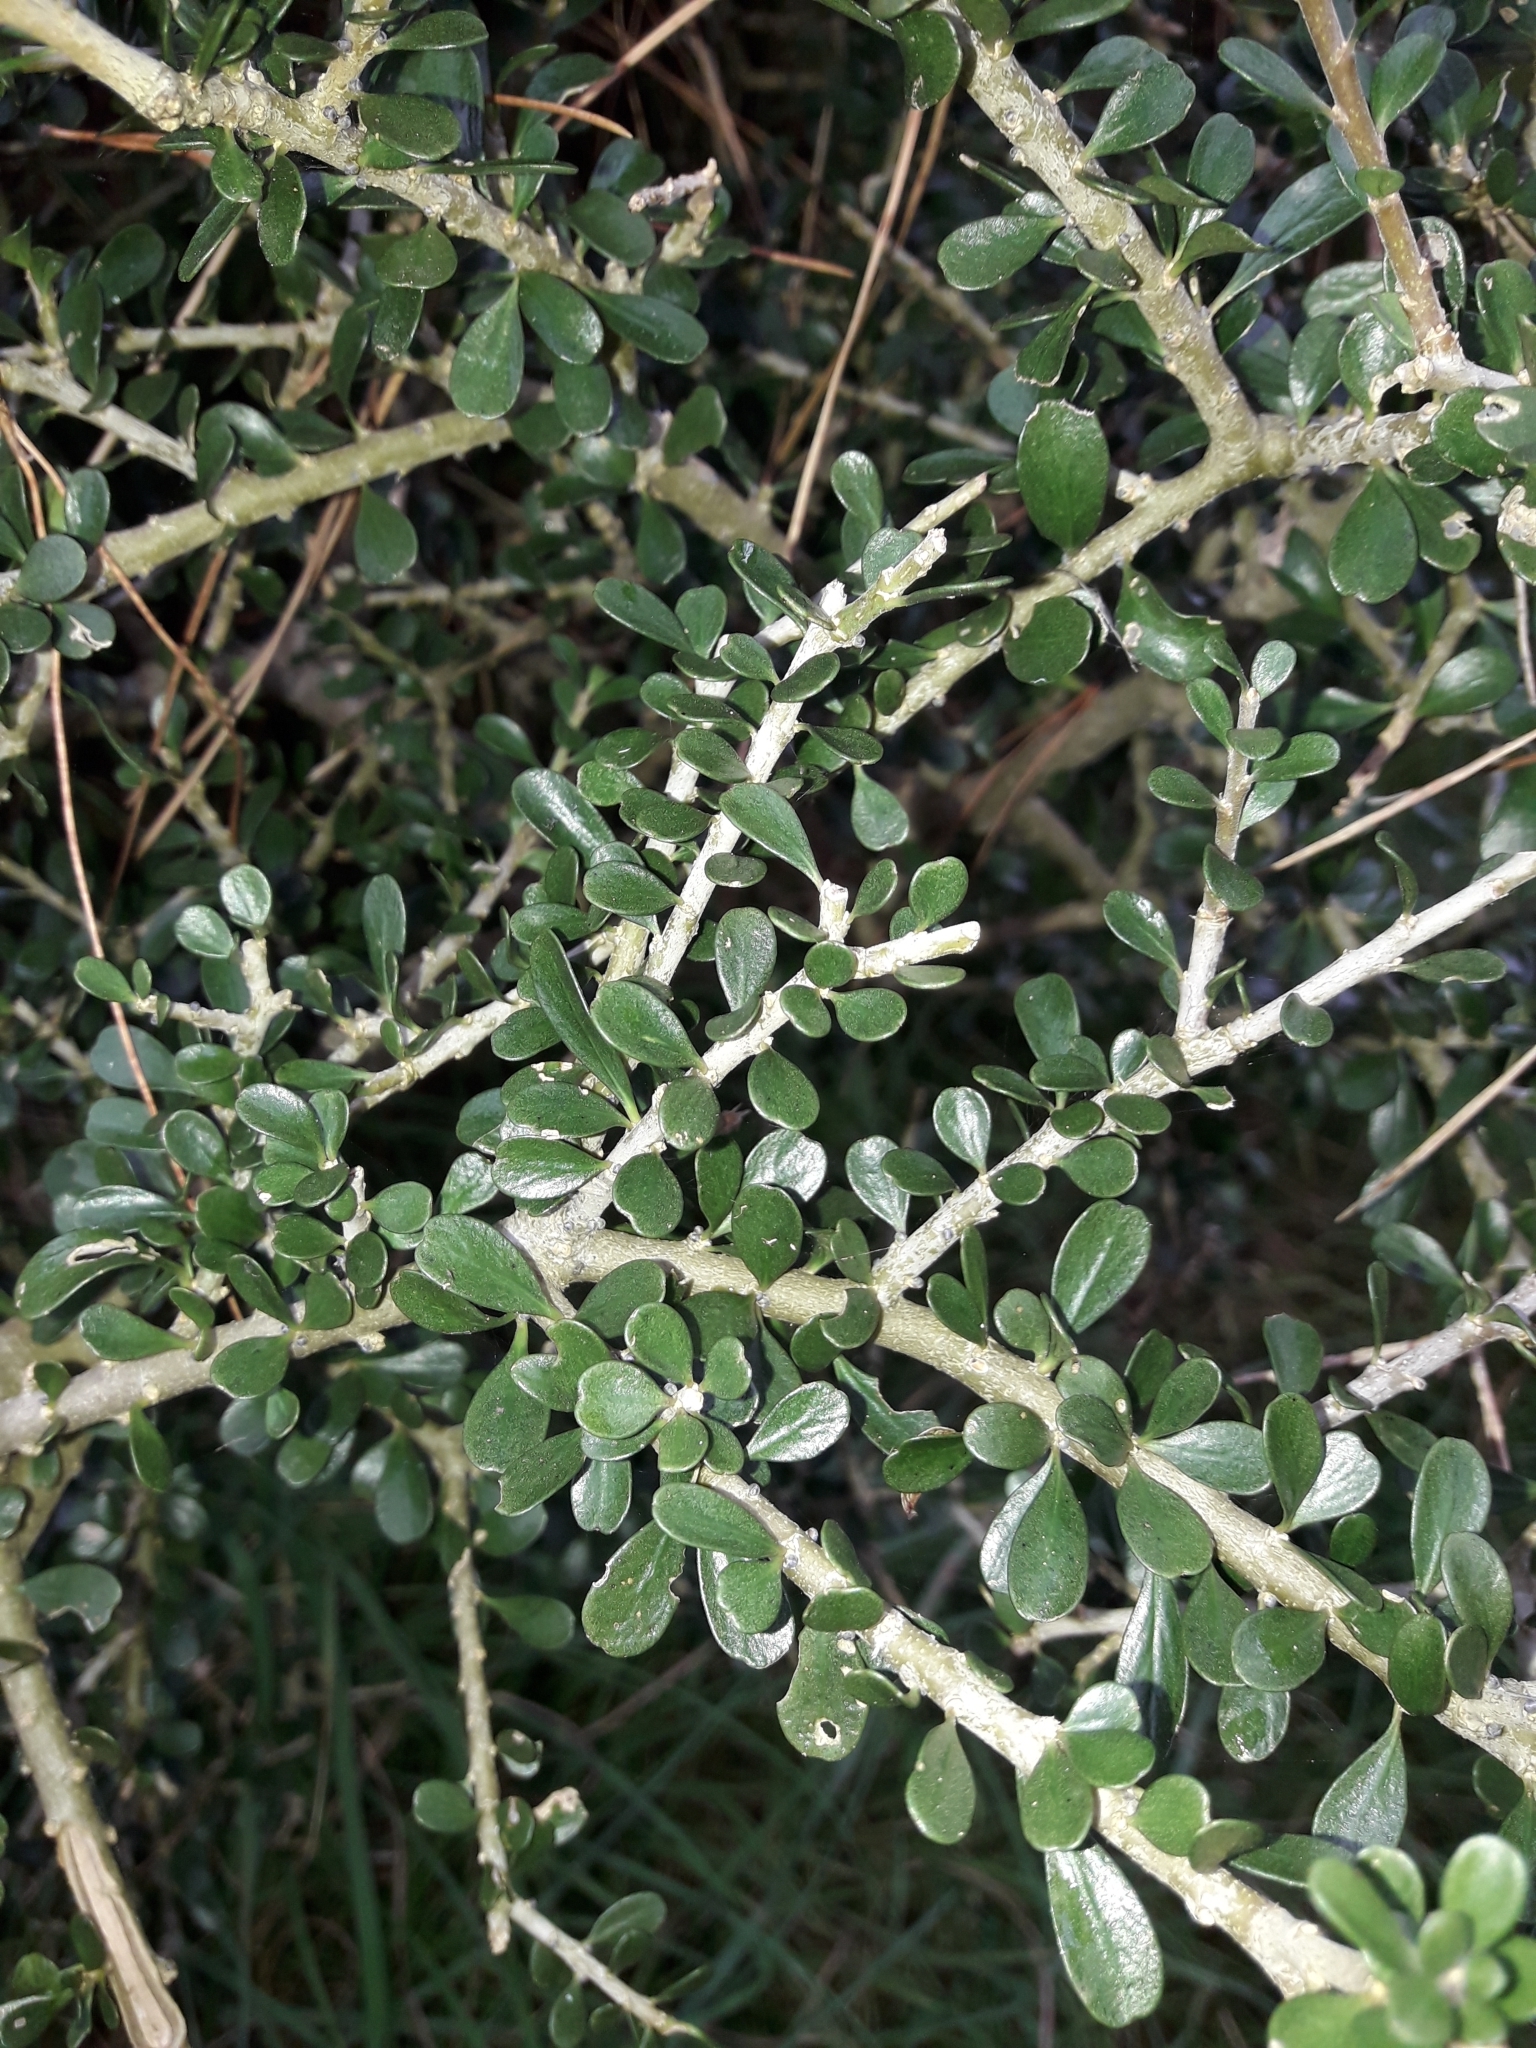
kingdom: Plantae
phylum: Tracheophyta
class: Magnoliopsida
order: Malpighiales
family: Violaceae
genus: Melicytus
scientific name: Melicytus crassifolius
